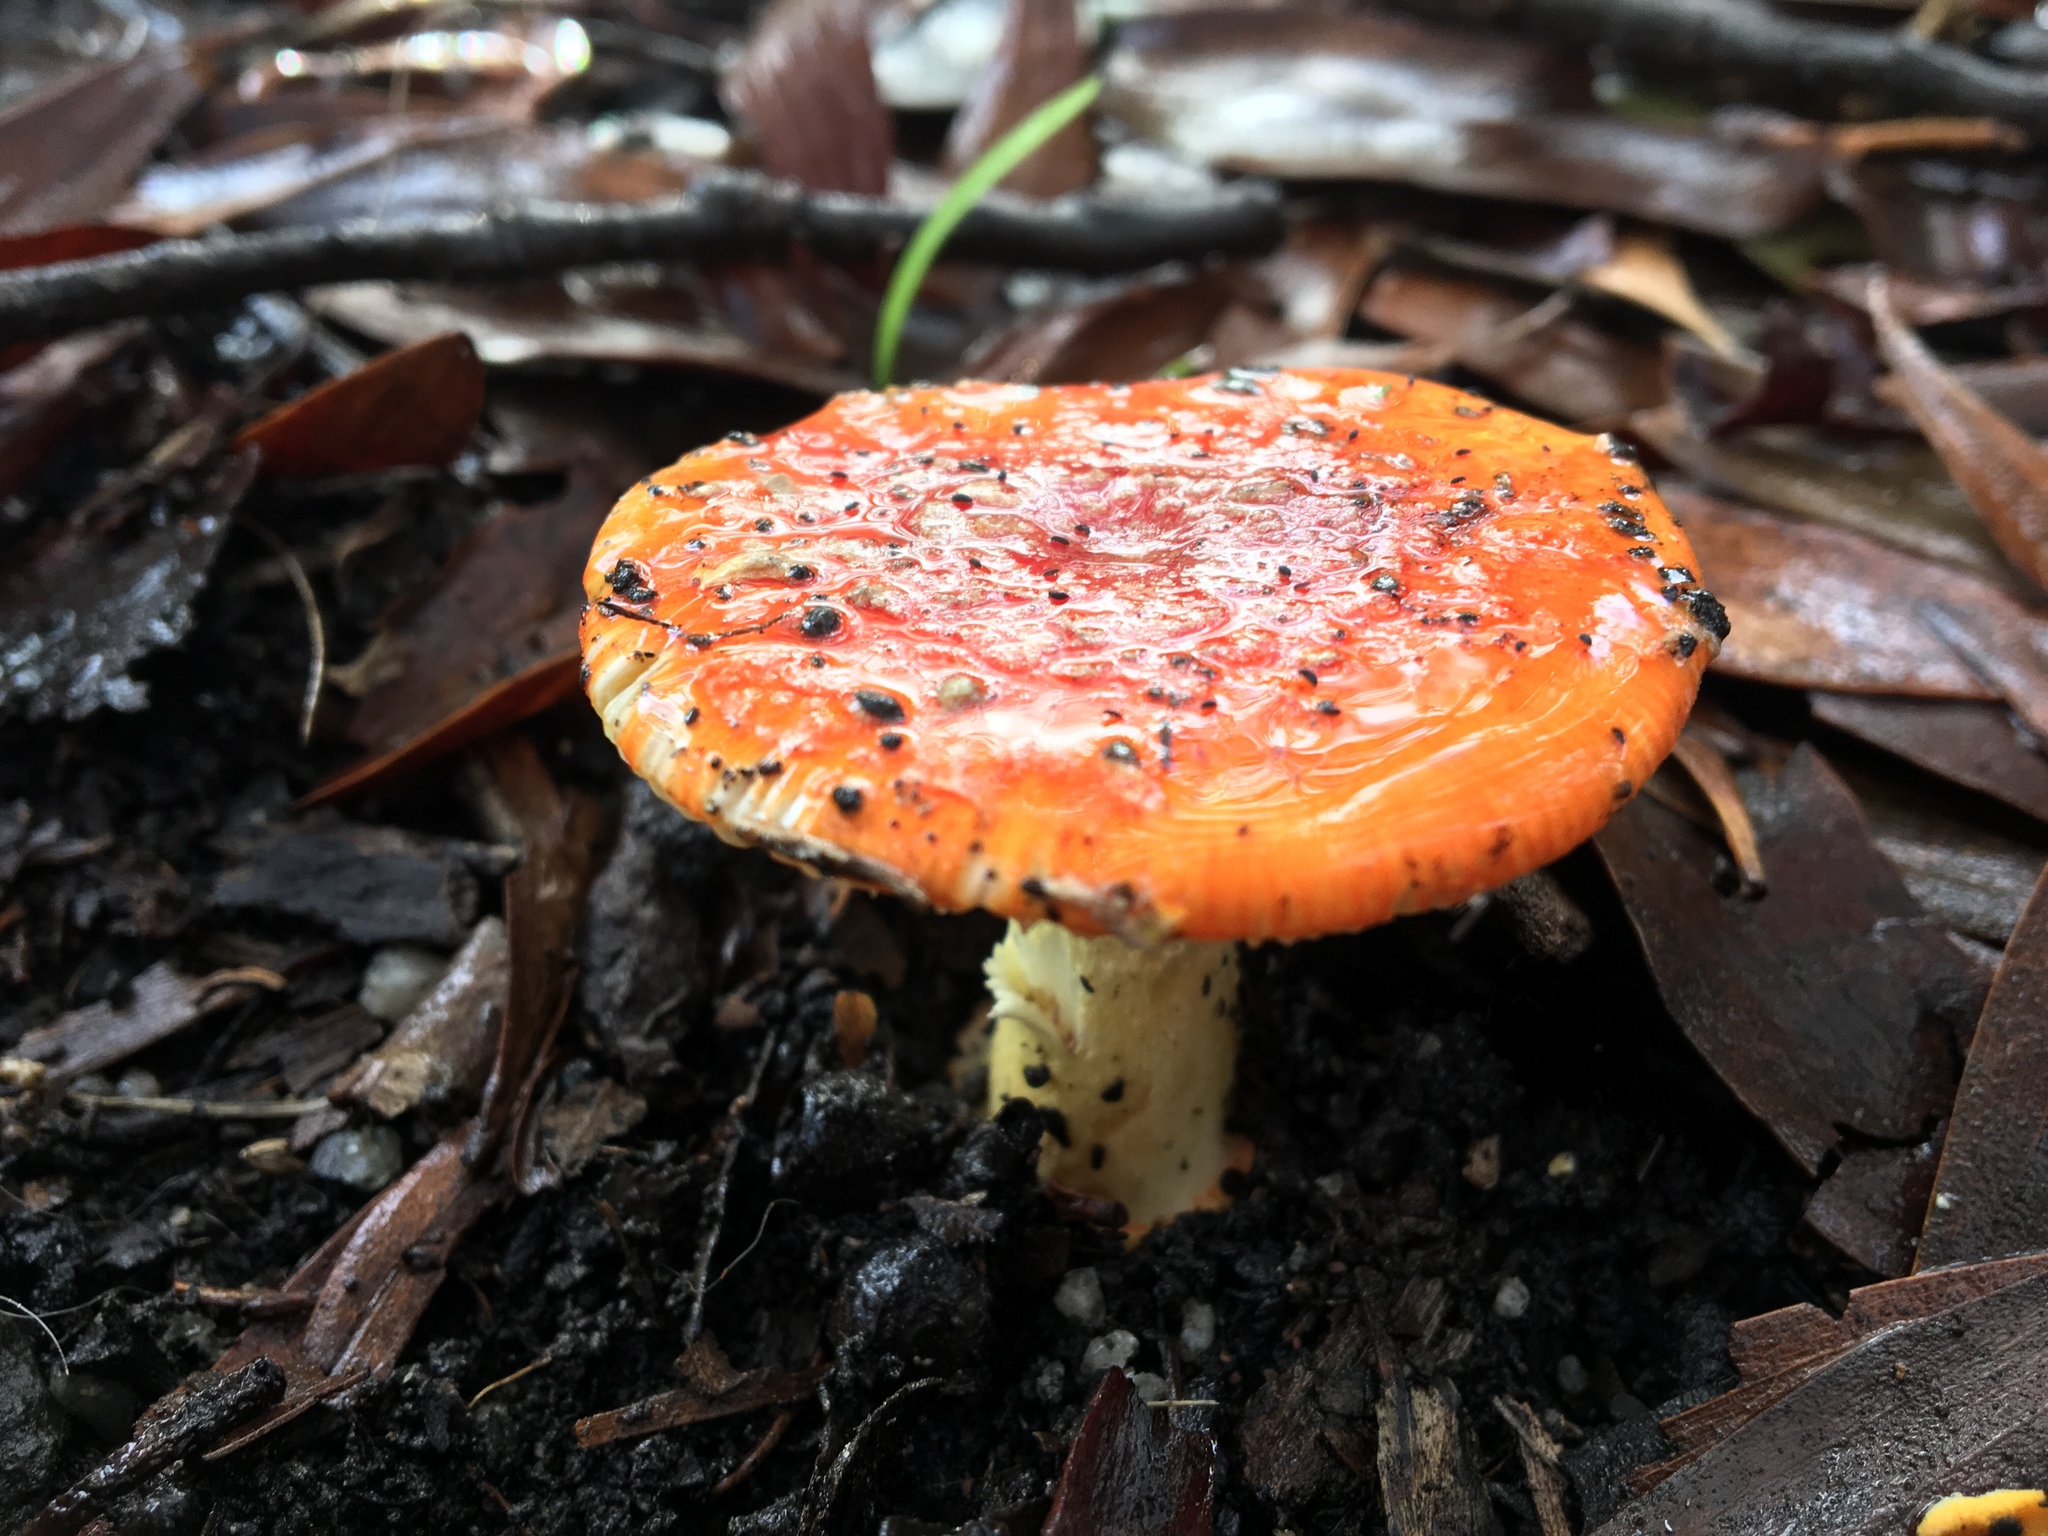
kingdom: Fungi
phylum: Basidiomycota
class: Agaricomycetes
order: Agaricales
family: Amanitaceae
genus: Amanita
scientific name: Amanita xanthocephala
